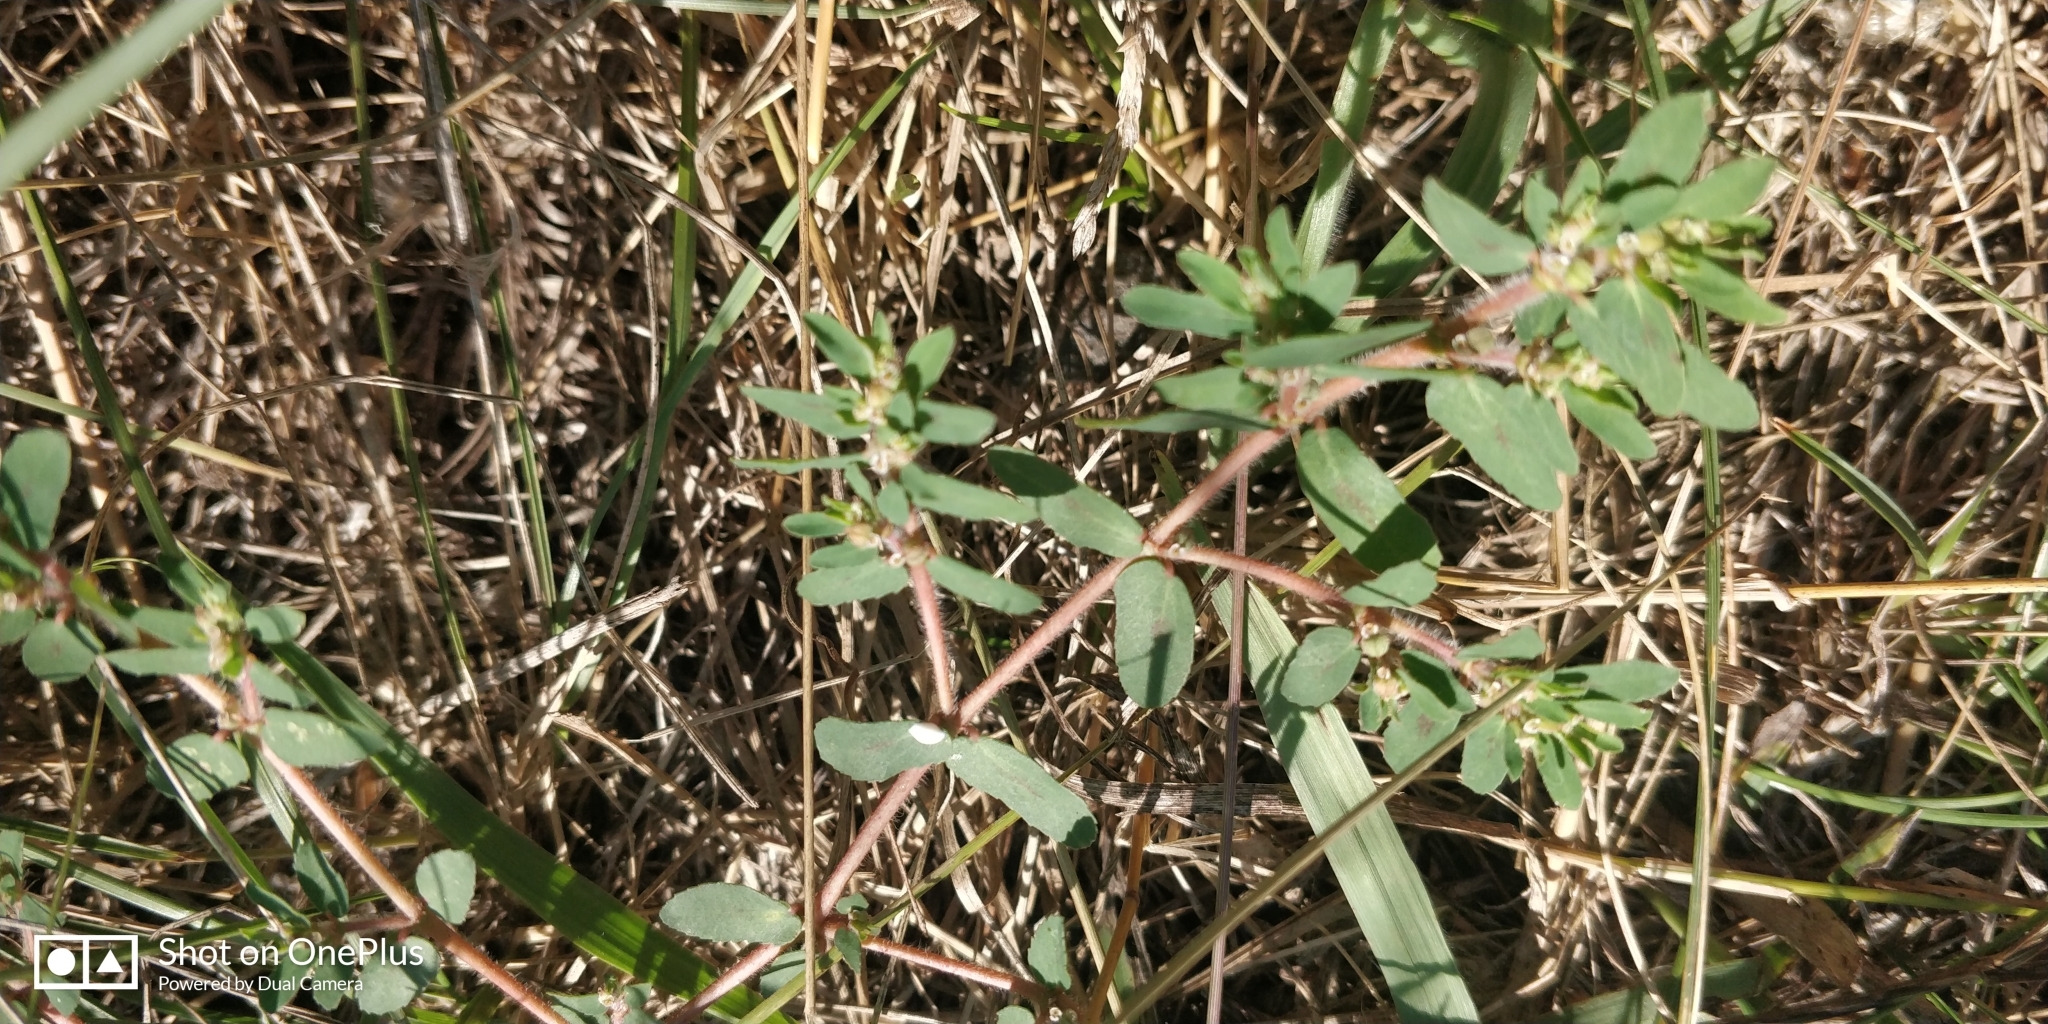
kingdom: Plantae
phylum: Tracheophyta
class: Magnoliopsida
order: Malpighiales
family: Euphorbiaceae
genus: Euphorbia
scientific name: Euphorbia maculata
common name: Spotted spurge
